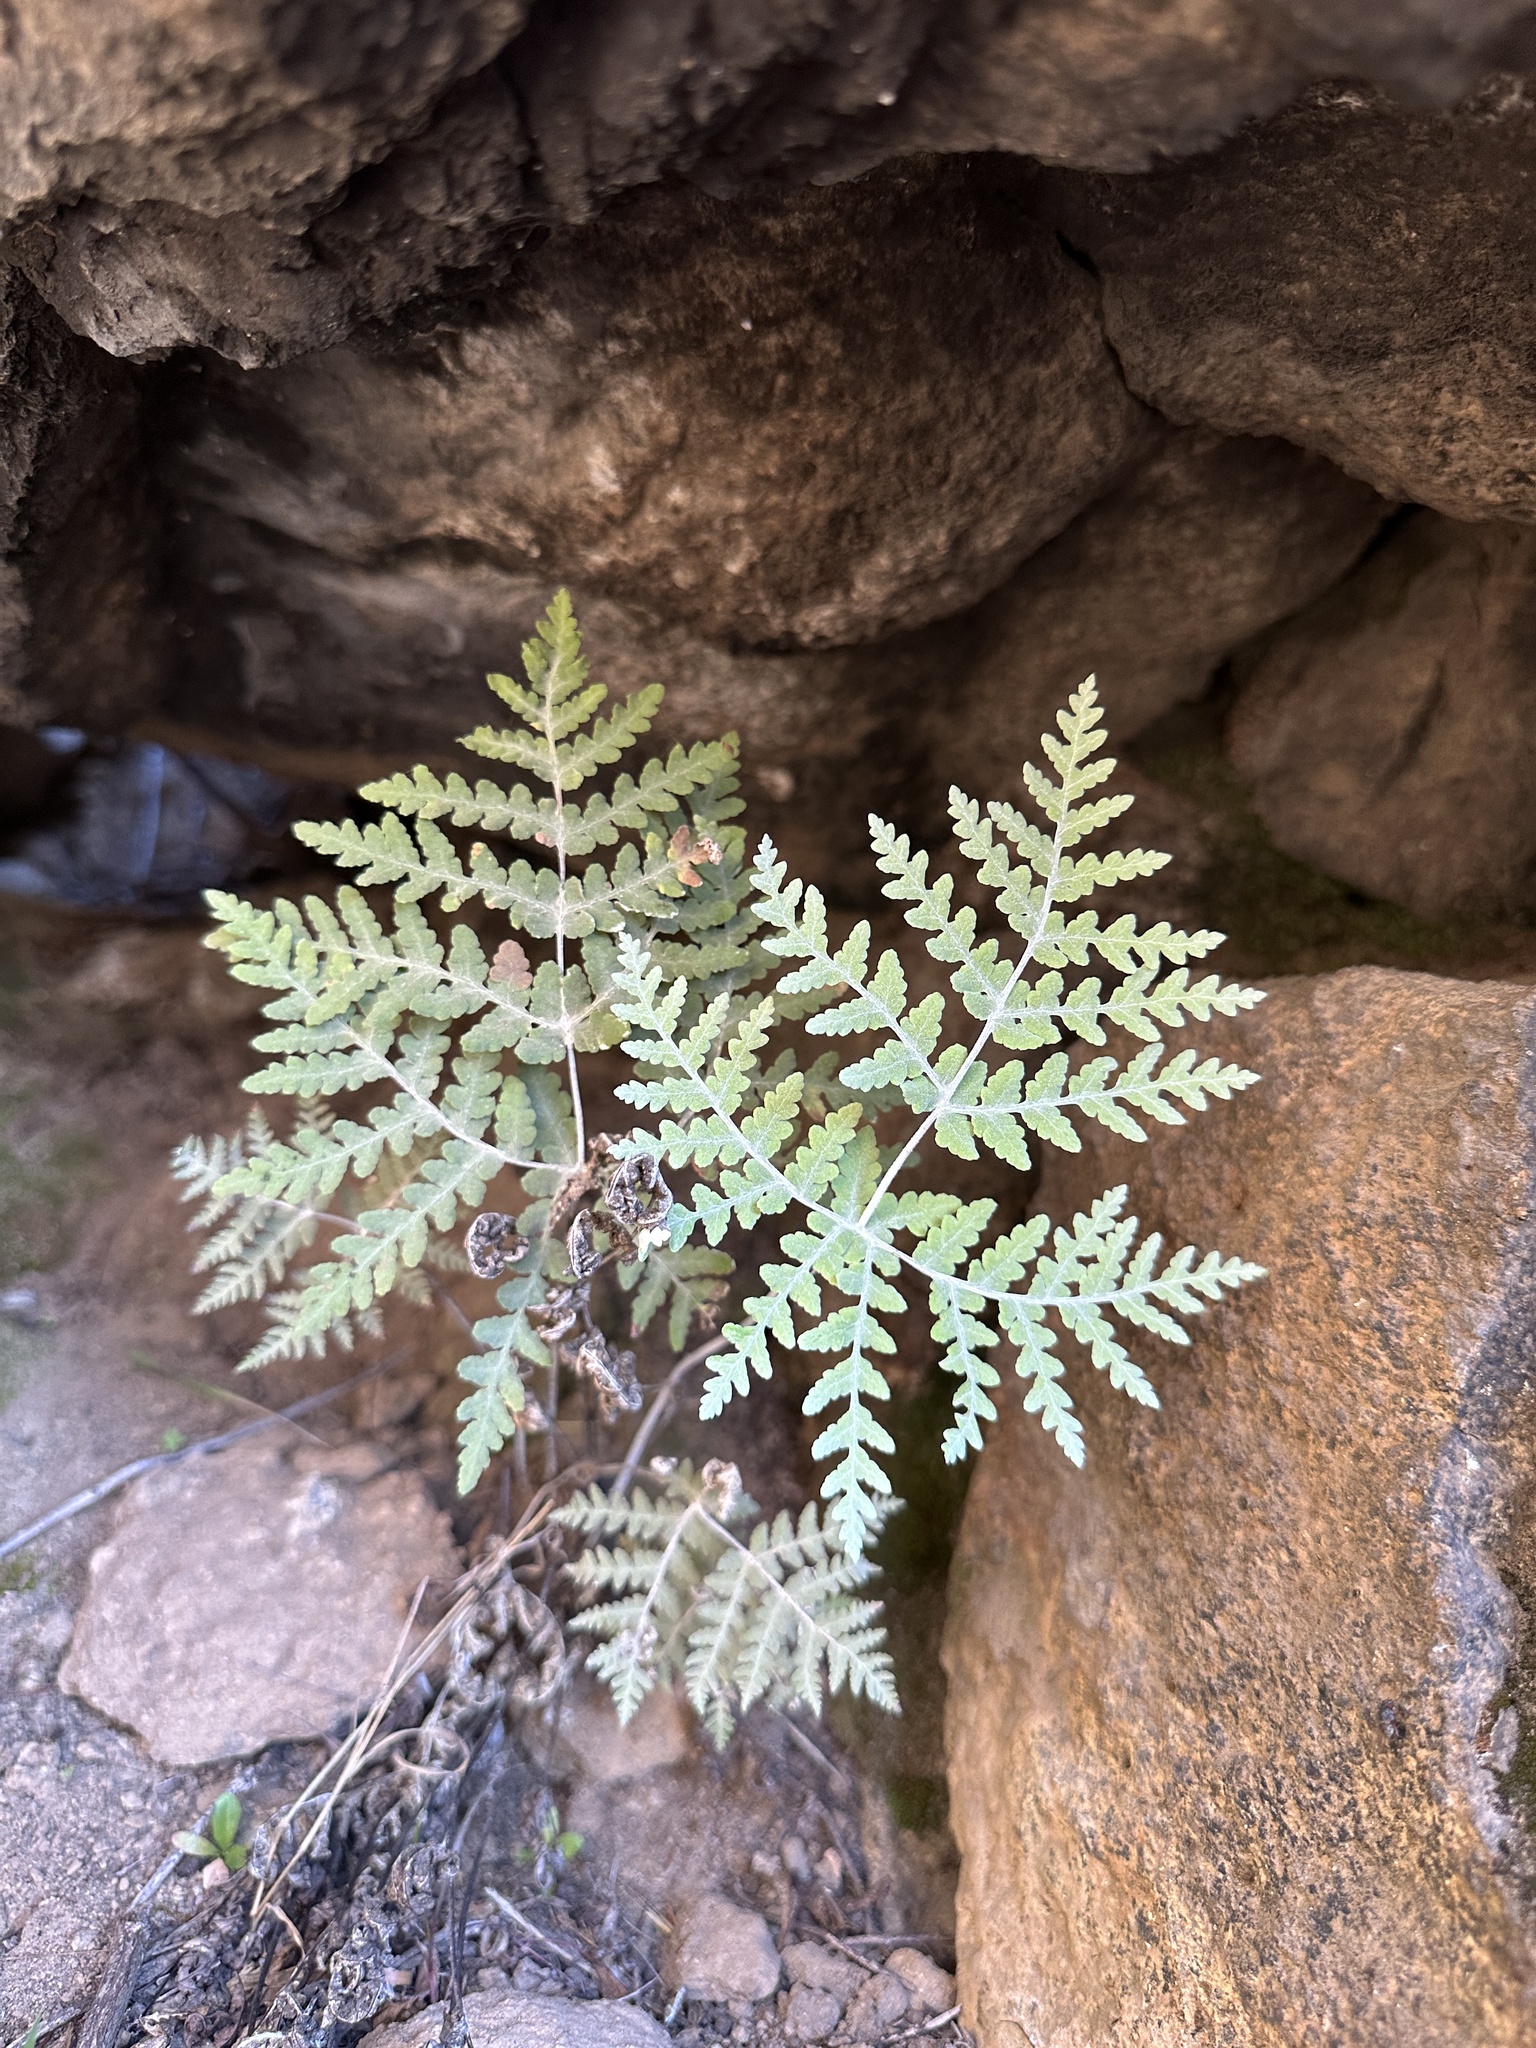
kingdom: Plantae
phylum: Tracheophyta
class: Polypodiopsida
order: Polypodiales
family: Pteridaceae
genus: Pentagramma
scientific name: Pentagramma pallida
